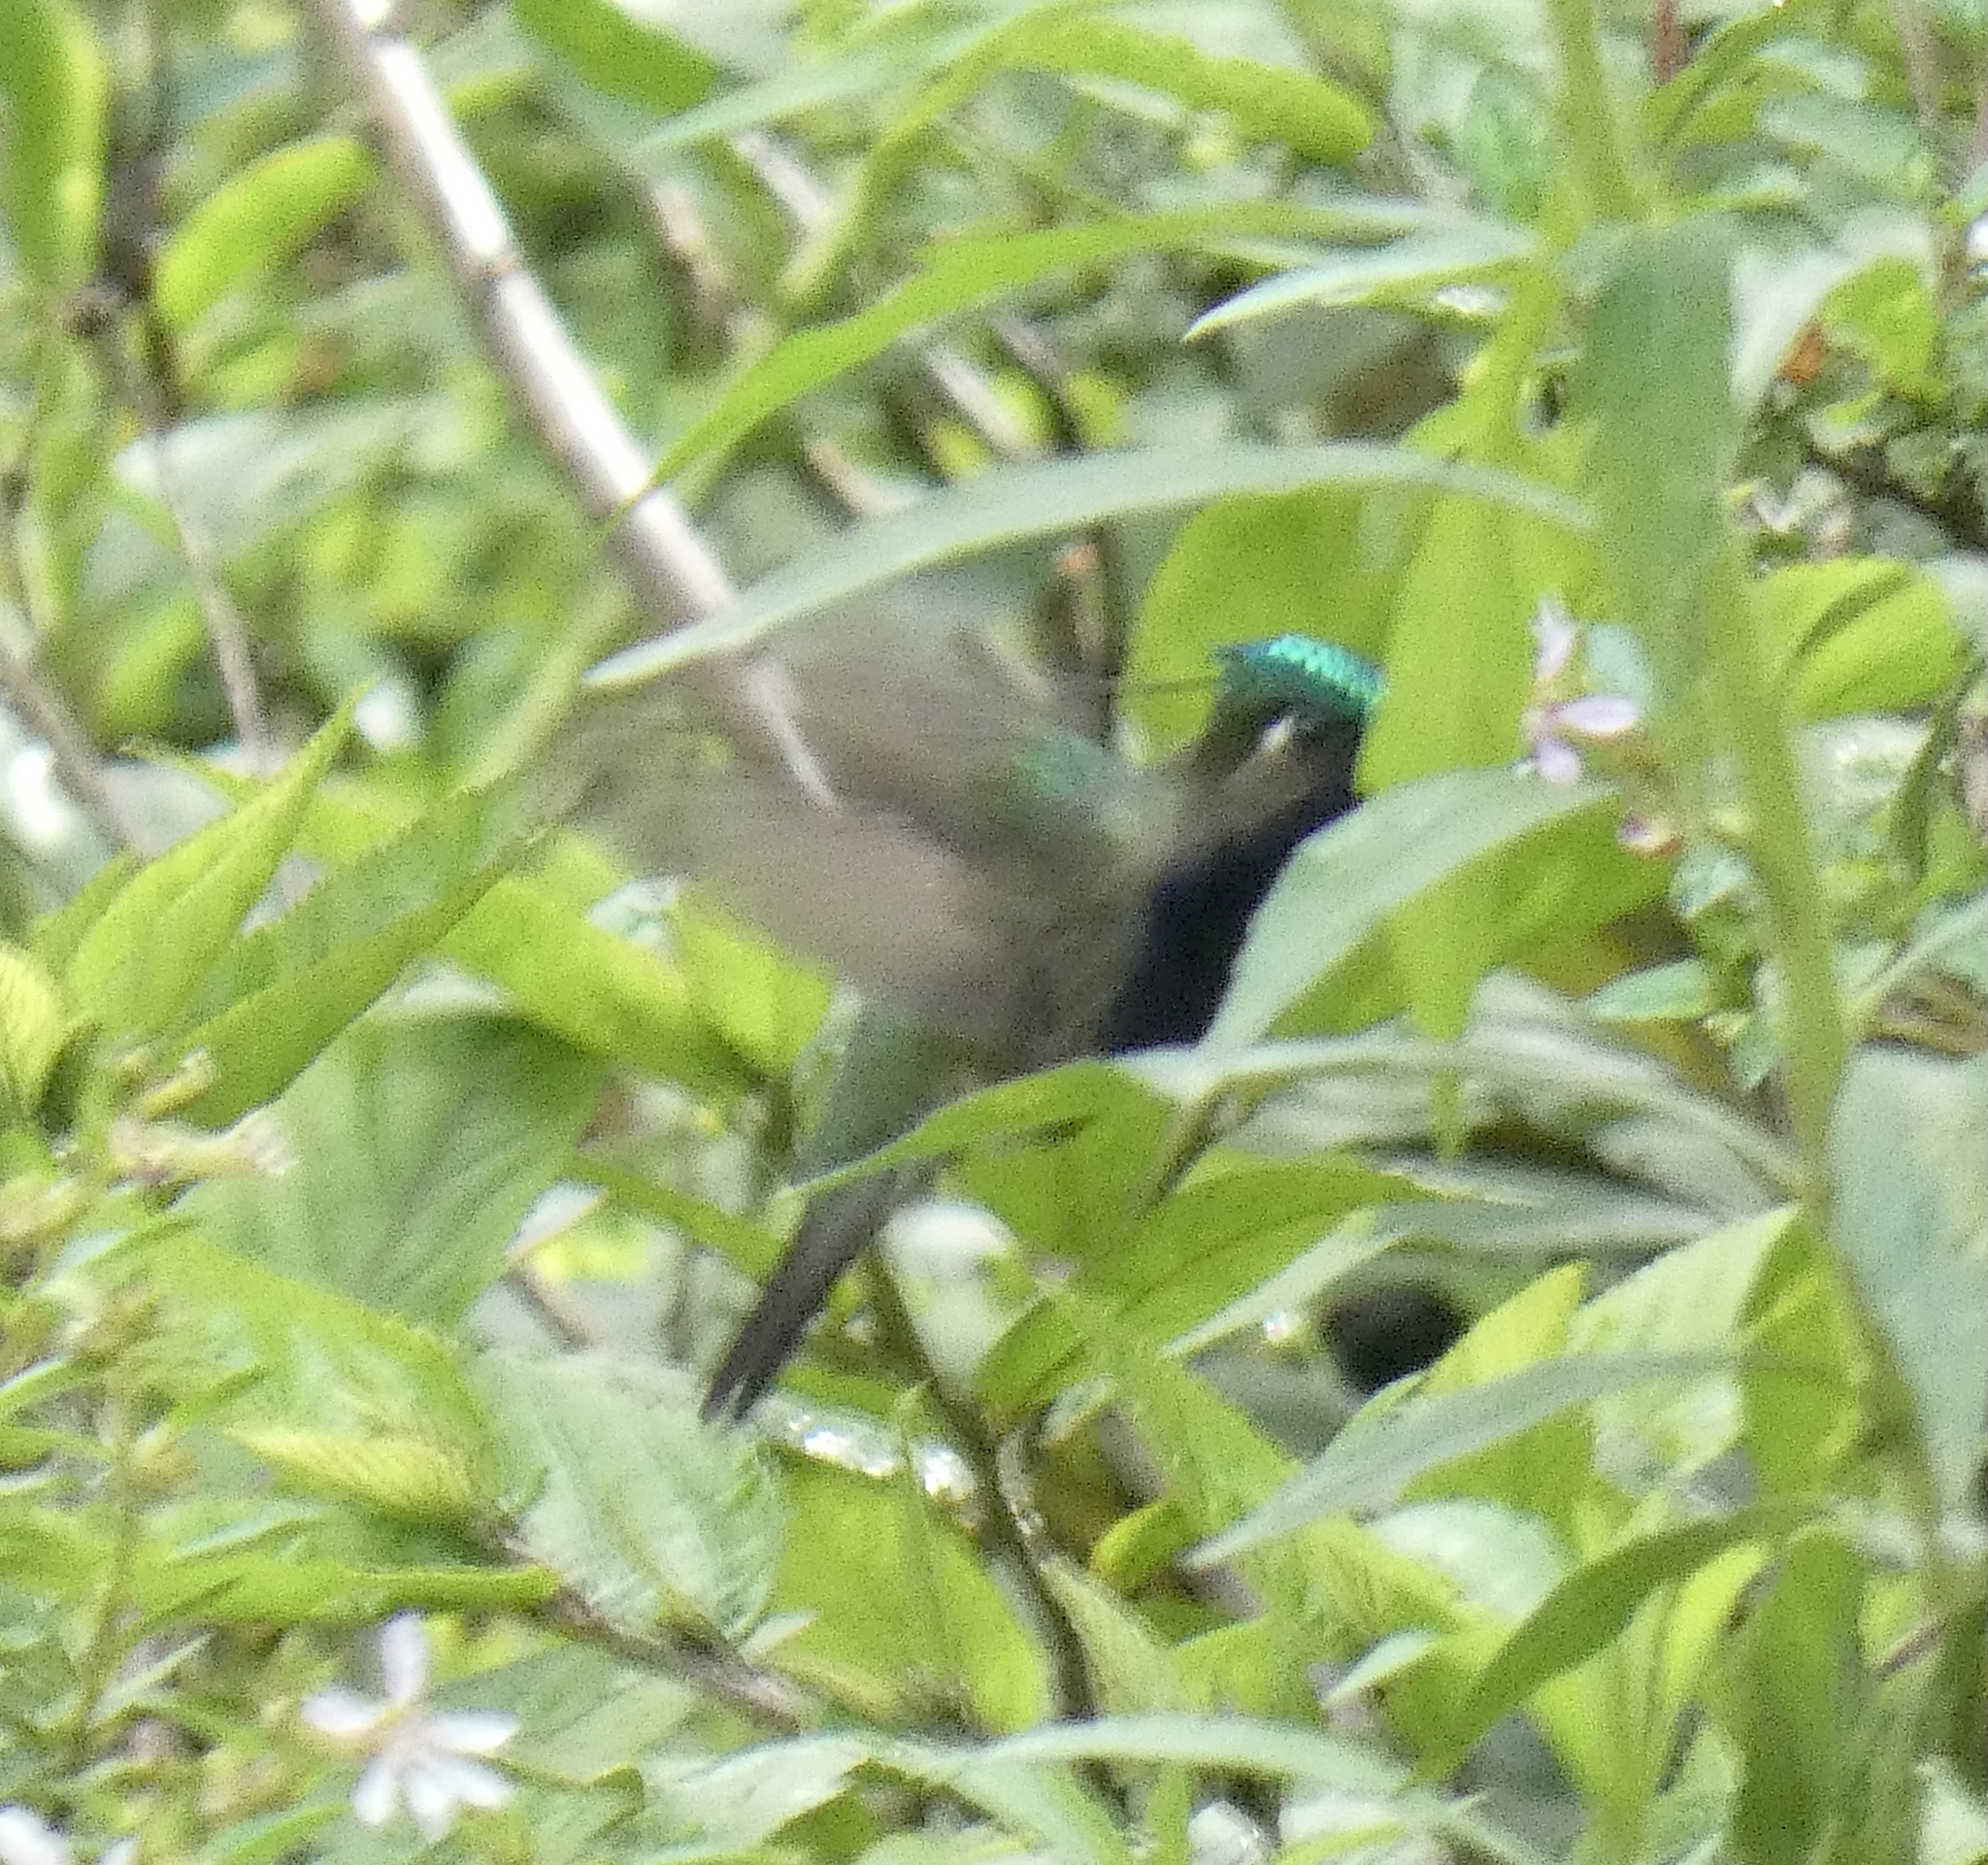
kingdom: Animalia
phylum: Chordata
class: Aves
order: Apodiformes
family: Trochilidae
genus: Stephanoxis
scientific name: Stephanoxis lalandi
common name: Green-crowned plovercrest
